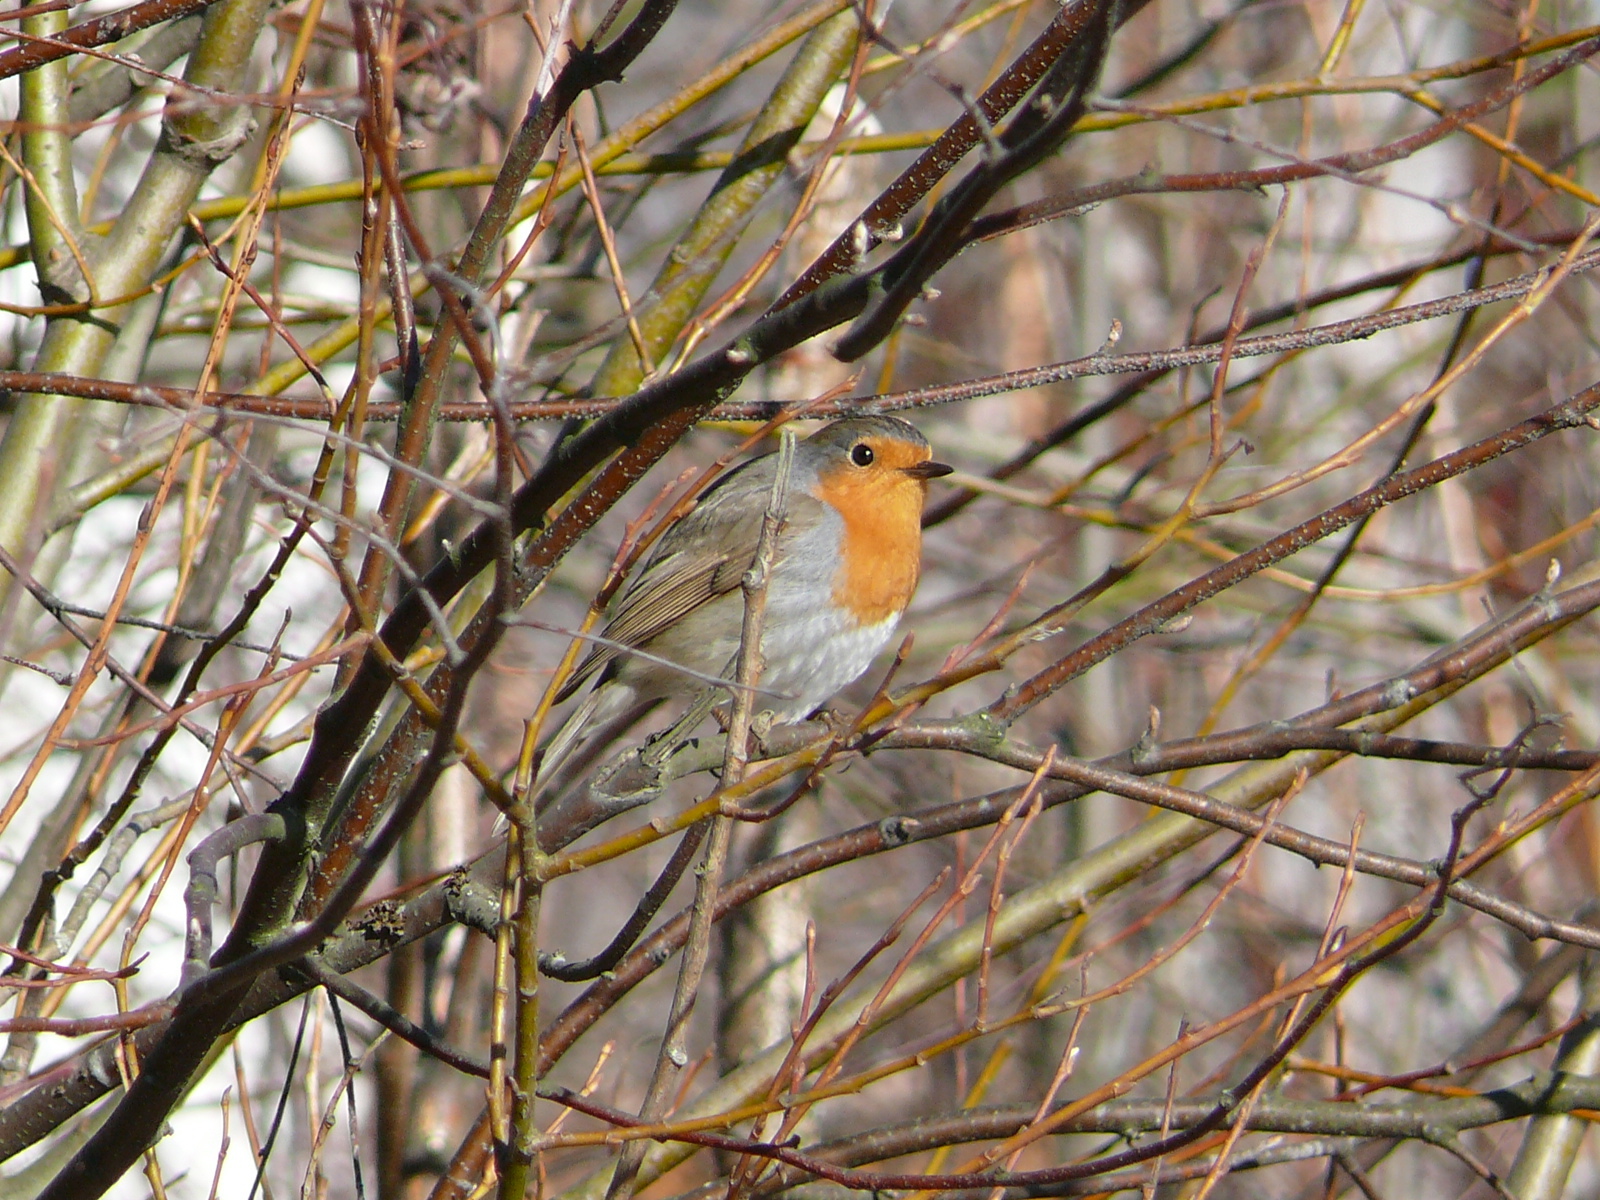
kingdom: Animalia
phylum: Chordata
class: Aves
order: Passeriformes
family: Muscicapidae
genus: Erithacus
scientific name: Erithacus rubecula
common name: European robin
